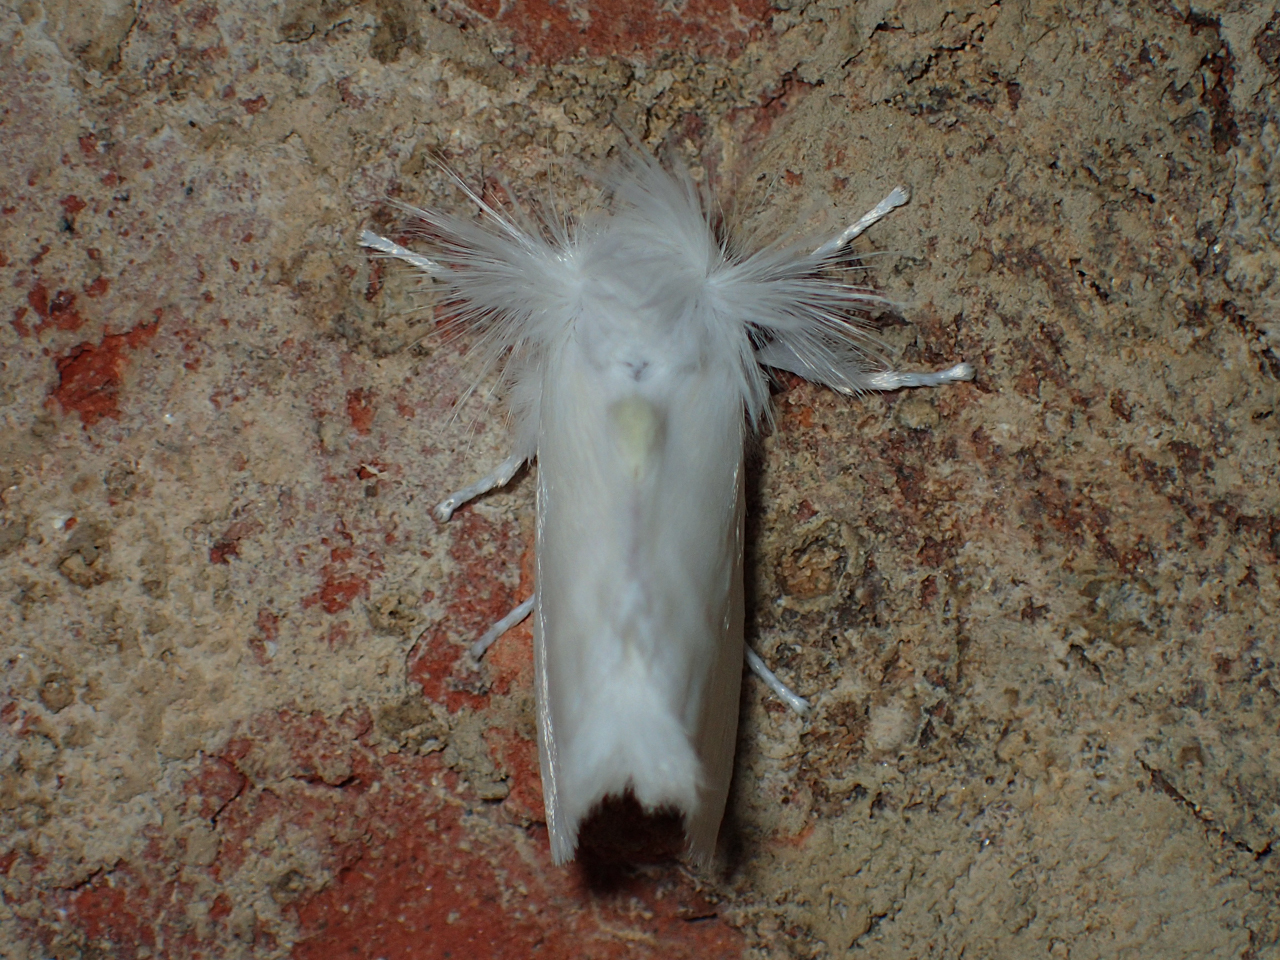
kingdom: Animalia
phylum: Arthropoda
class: Insecta
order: Lepidoptera
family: Megalopygidae
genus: Norape
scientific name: Norape cretata
